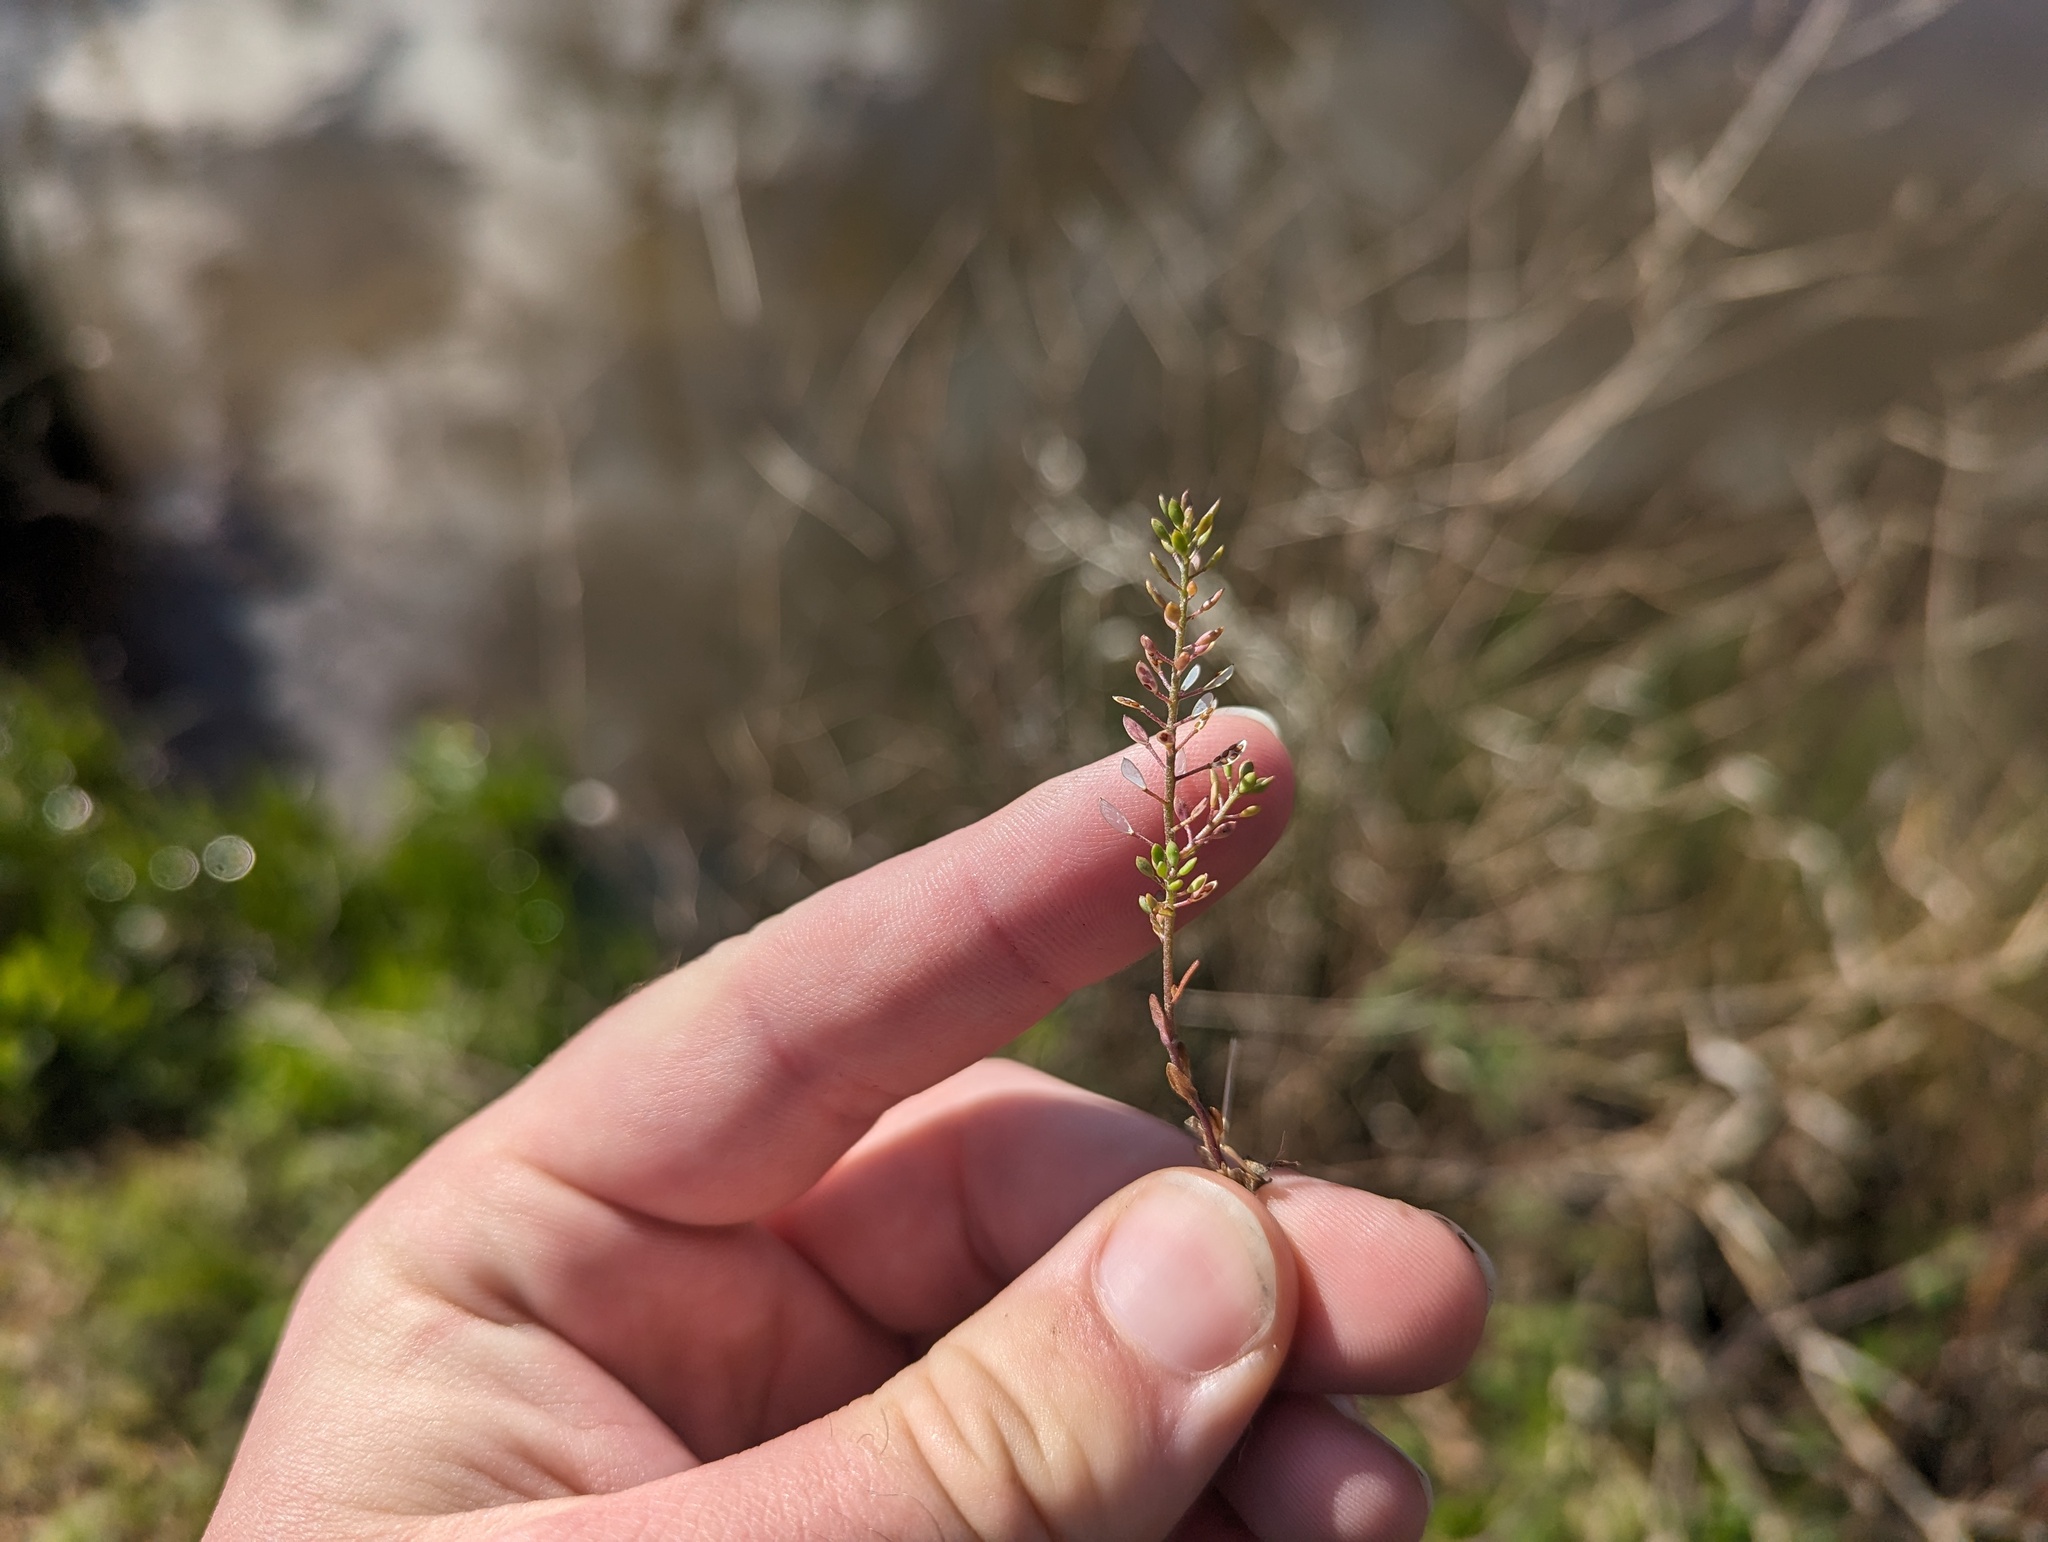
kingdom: Plantae
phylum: Tracheophyta
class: Magnoliopsida
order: Brassicales
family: Brassicaceae
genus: Abdra
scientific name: Abdra brachycarpa
